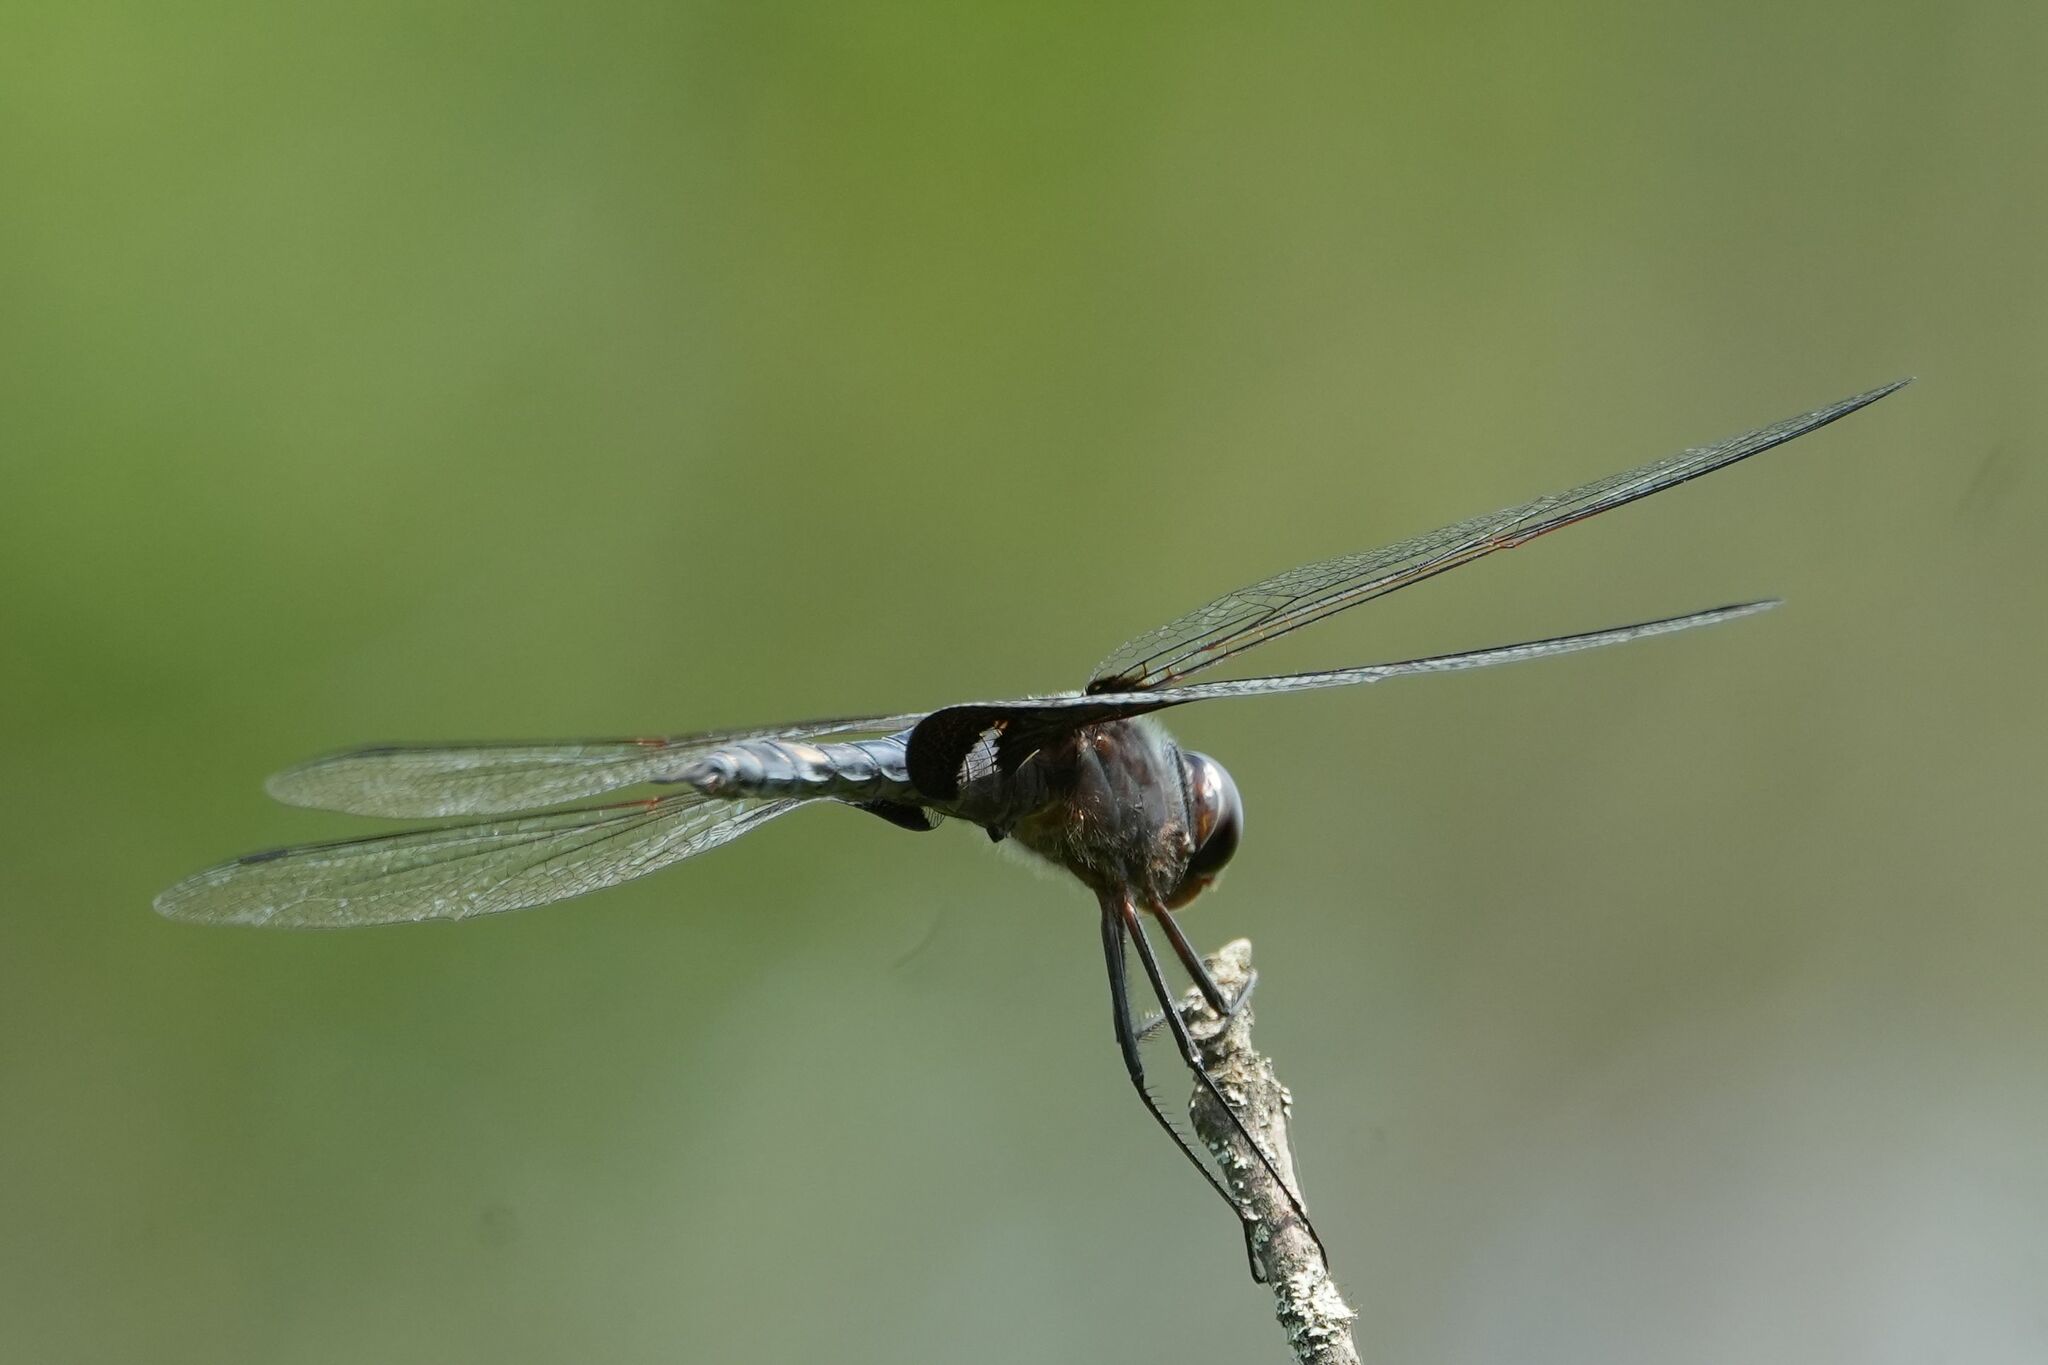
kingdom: Animalia
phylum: Arthropoda
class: Insecta
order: Odonata
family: Libellulidae
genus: Tramea
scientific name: Tramea lacerata
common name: Black saddlebags
